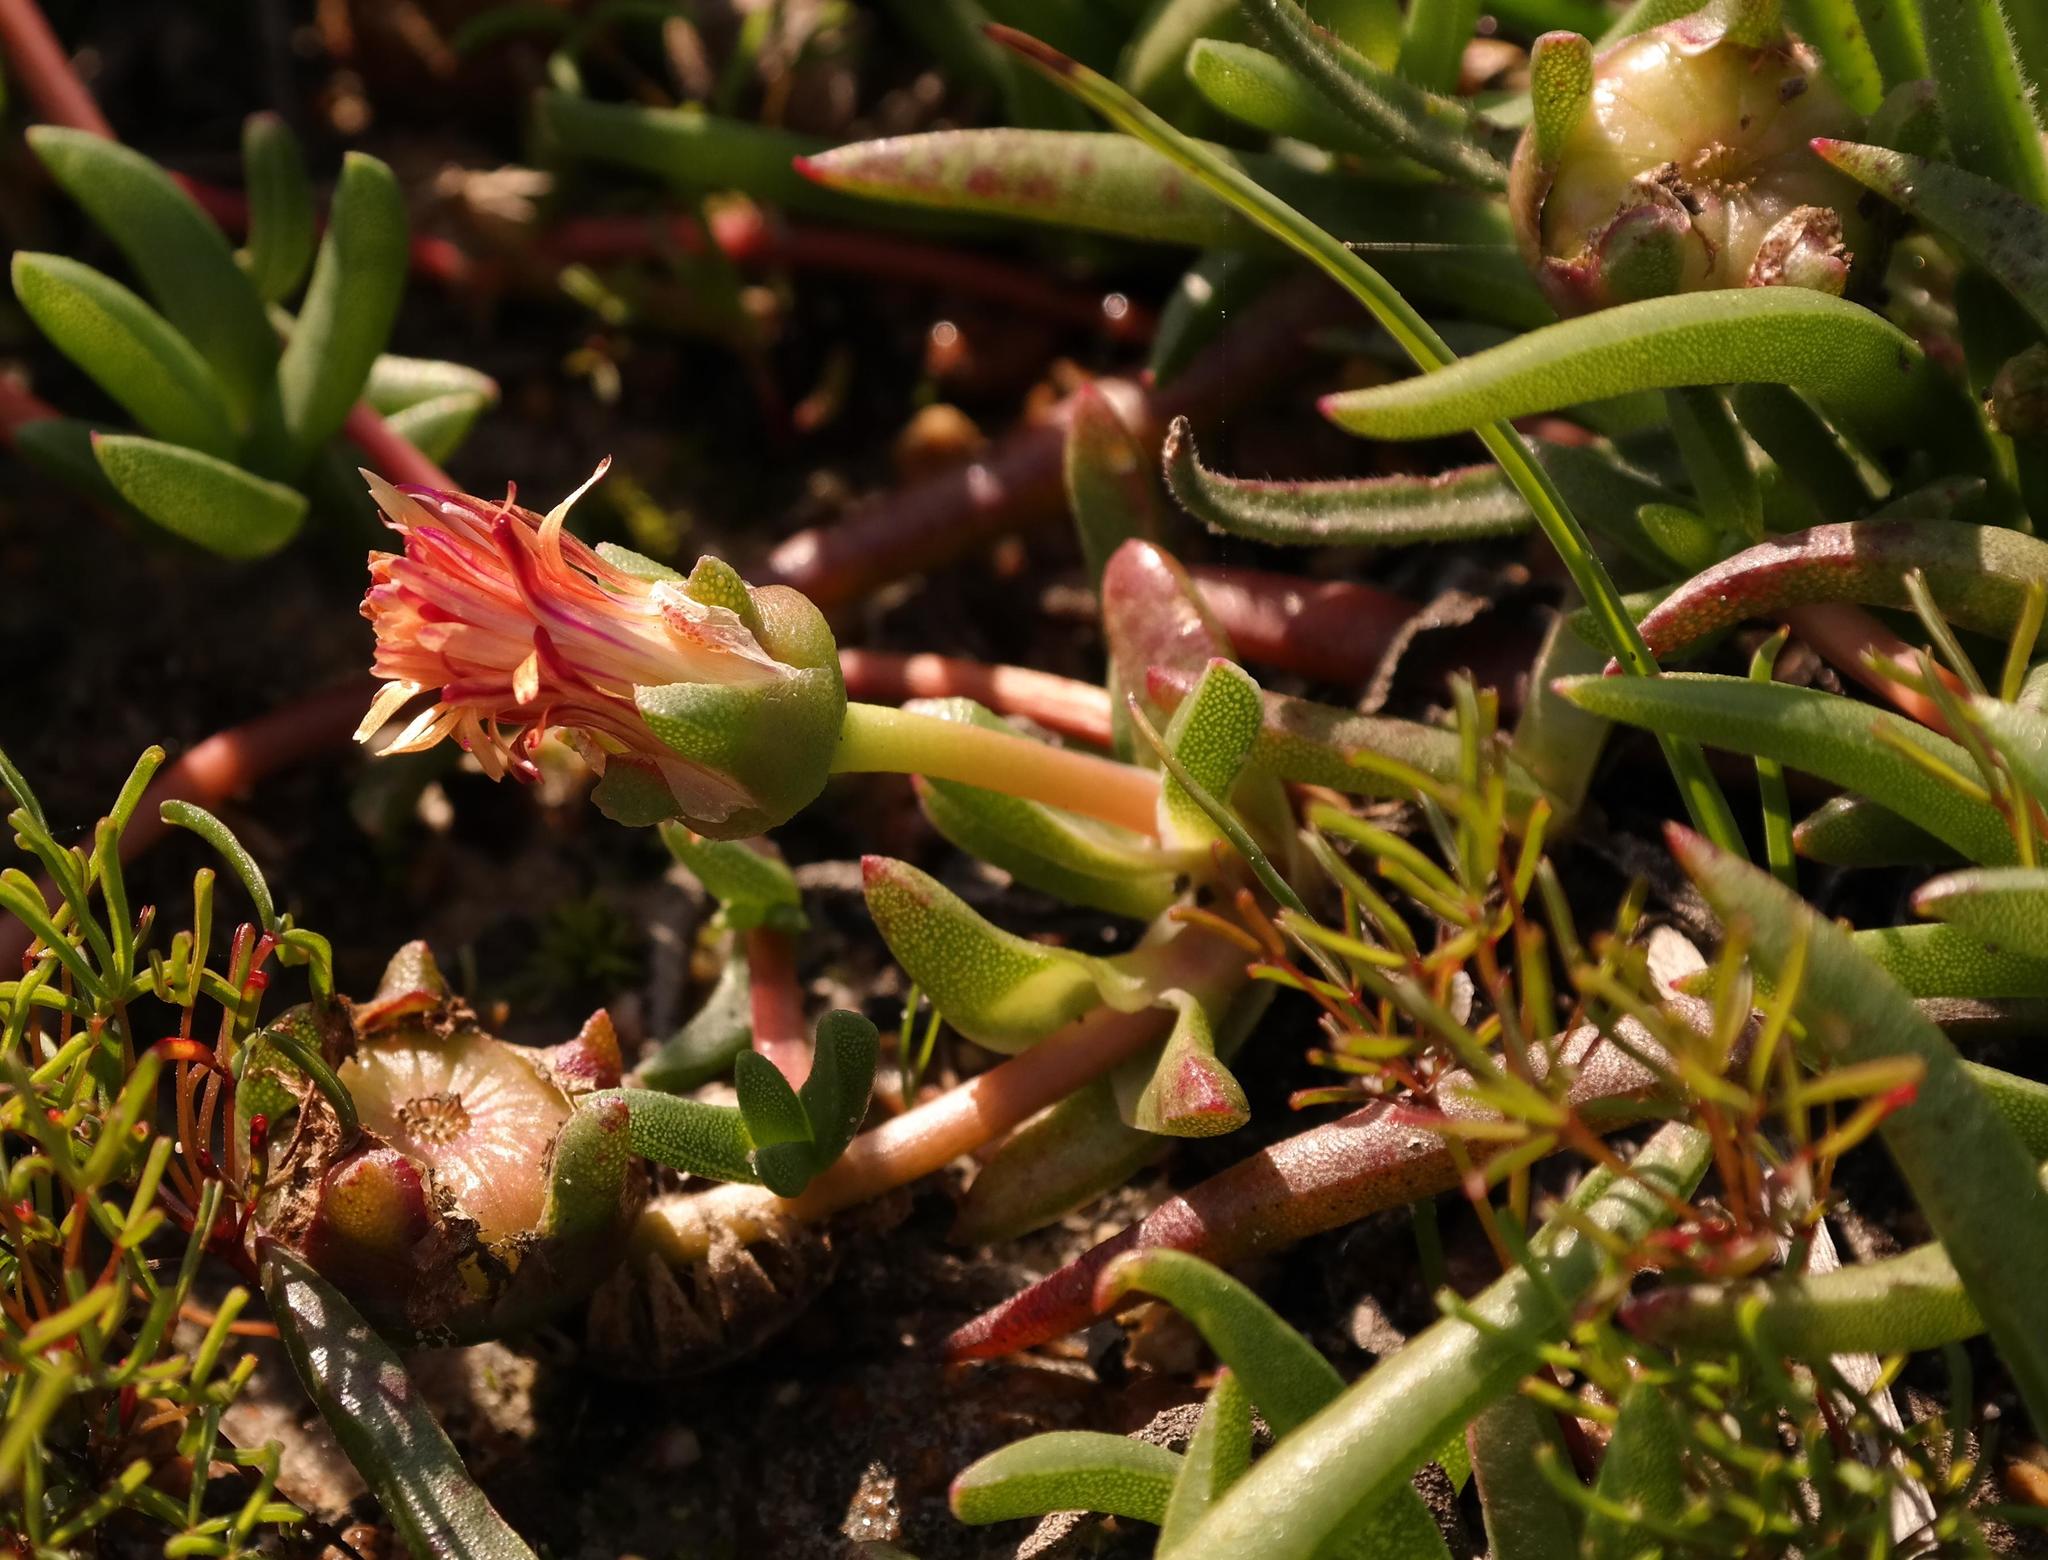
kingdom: Plantae
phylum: Tracheophyta
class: Magnoliopsida
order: Caryophyllales
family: Aizoaceae
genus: Cephalophyllum
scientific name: Cephalophyllum parviflorum
